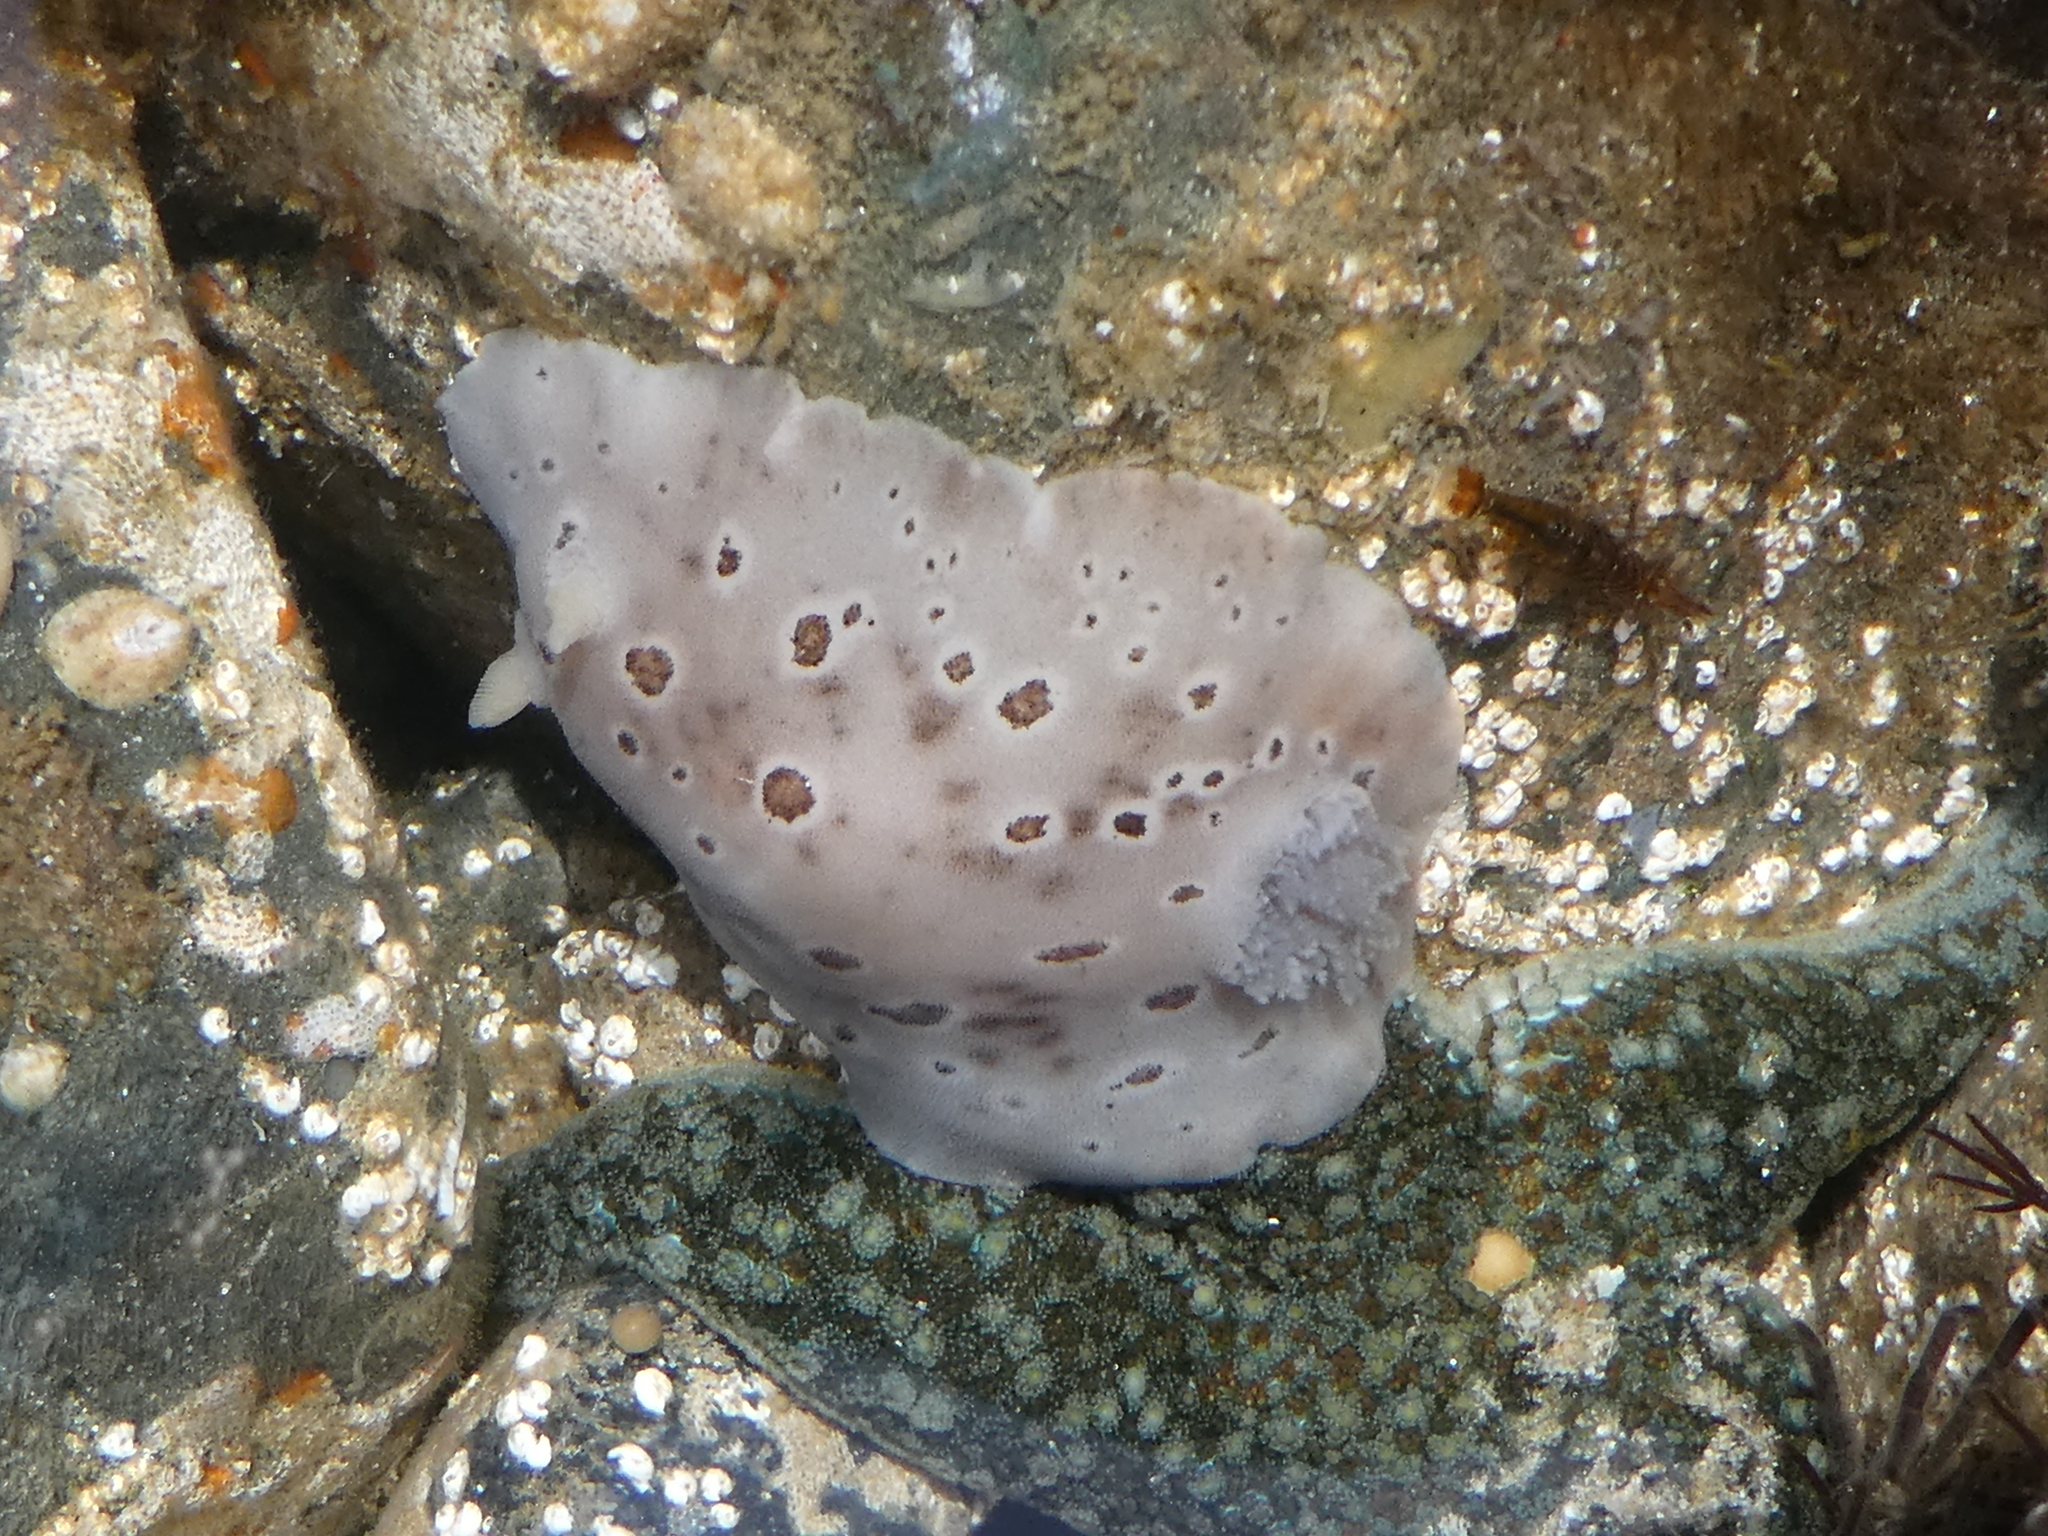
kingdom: Animalia
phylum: Mollusca
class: Gastropoda
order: Nudibranchia
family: Discodorididae
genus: Diaulula
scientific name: Diaulula odonoghuei
